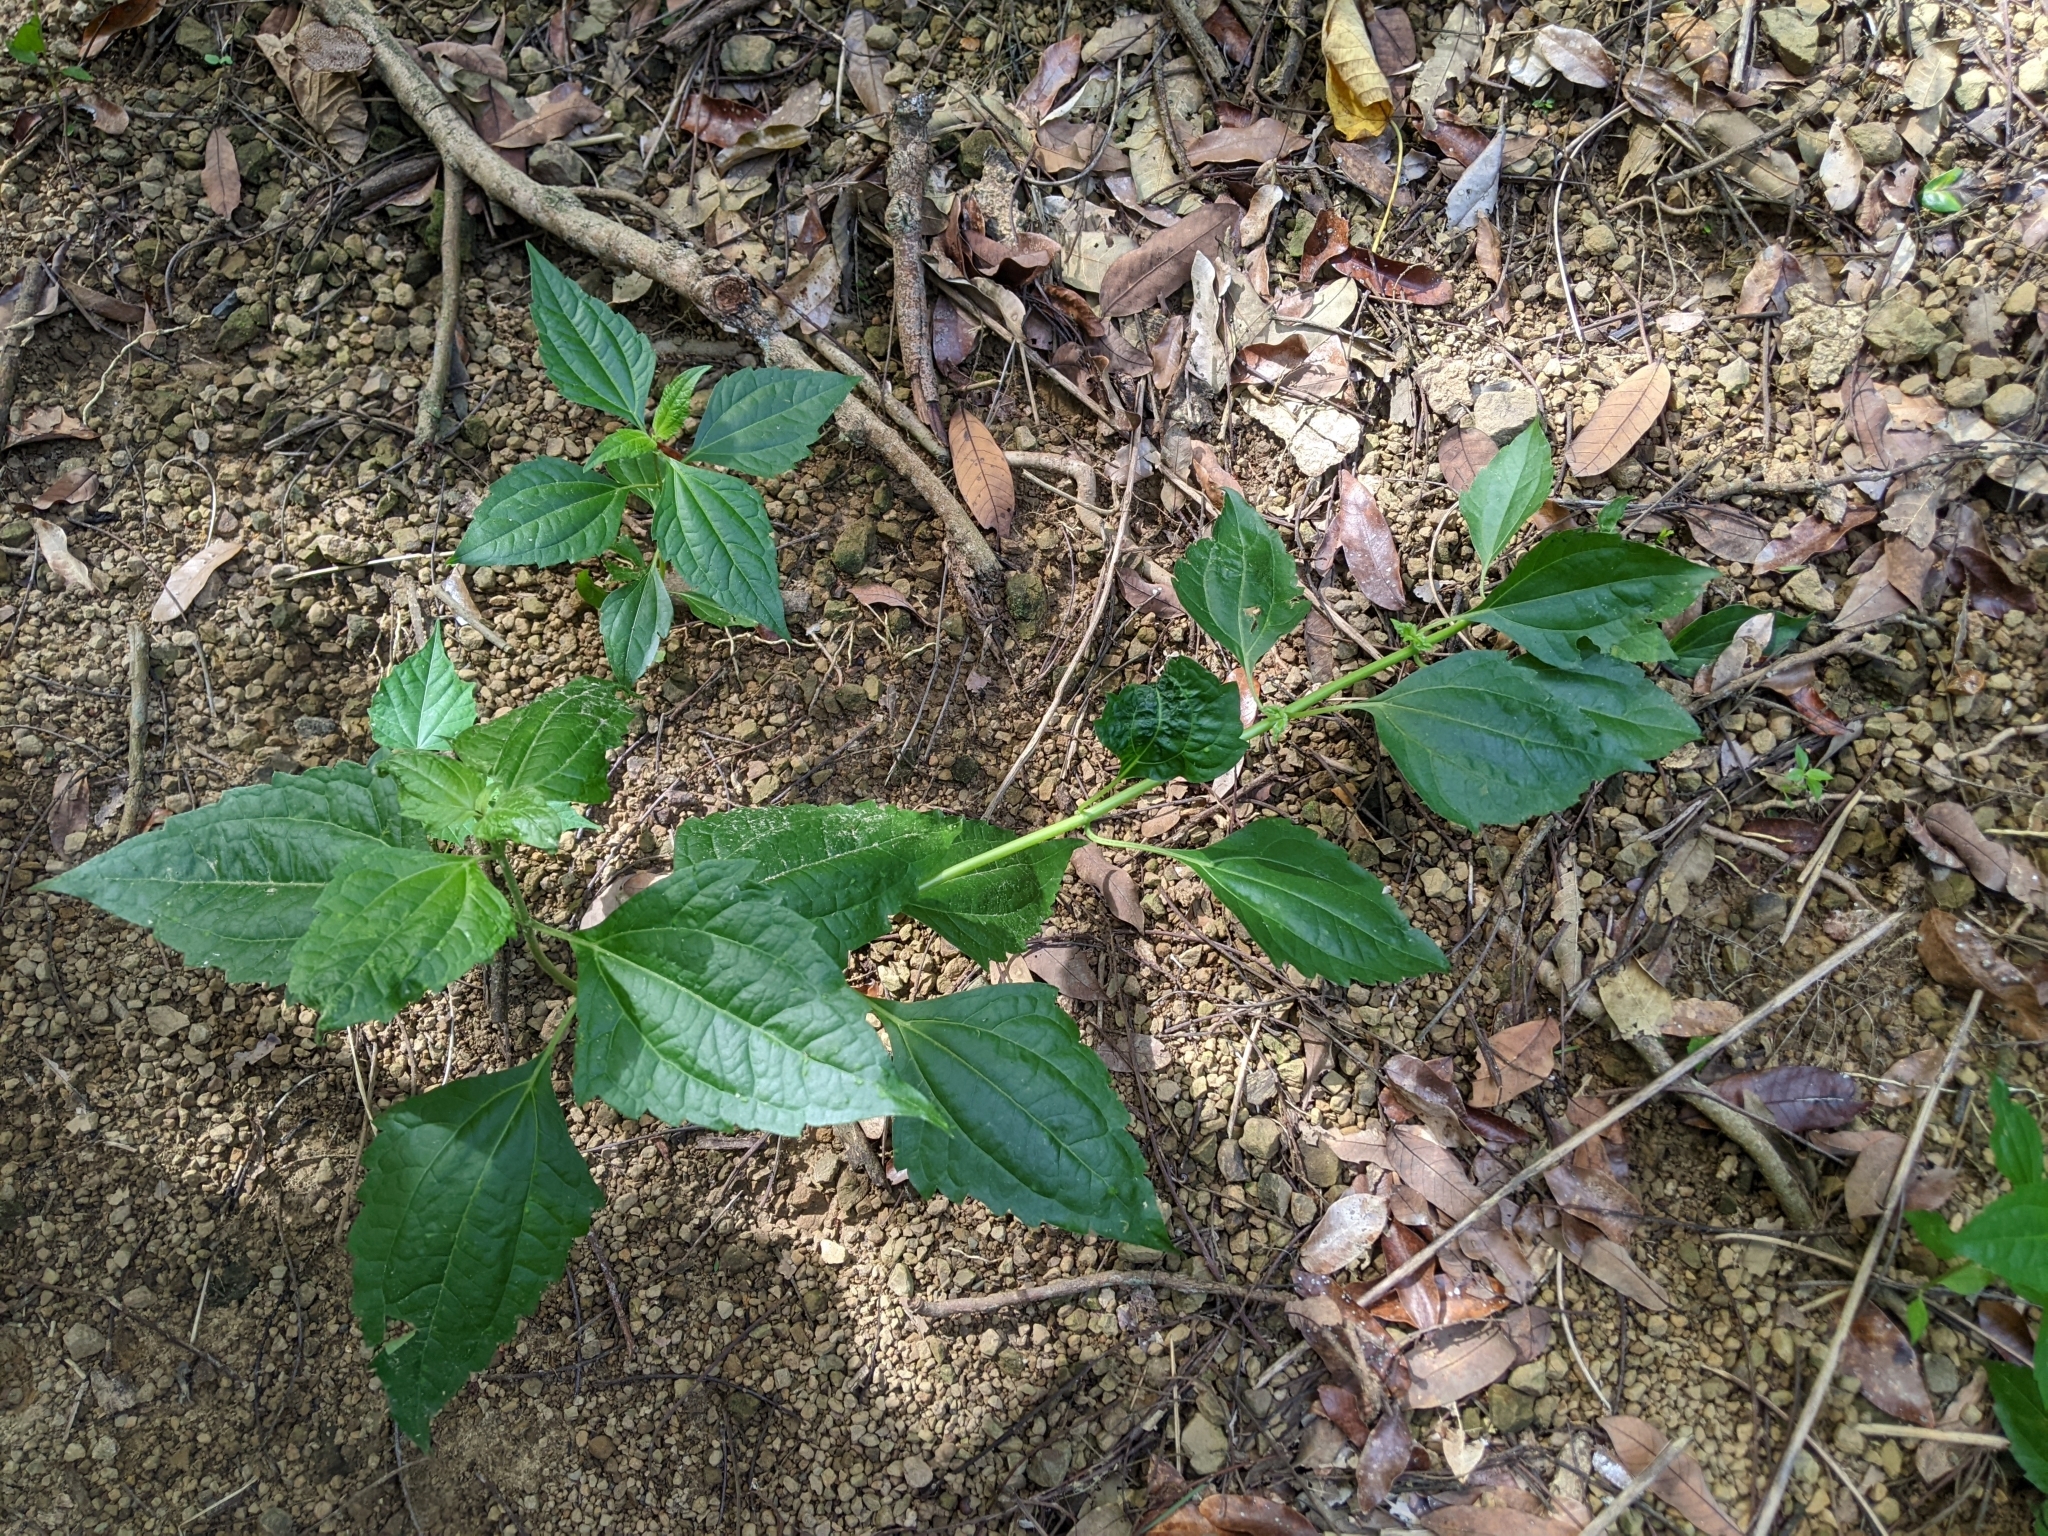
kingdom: Plantae
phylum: Tracheophyta
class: Magnoliopsida
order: Asterales
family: Asteraceae
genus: Chromolaena
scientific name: Chromolaena odorata
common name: Siamweed
